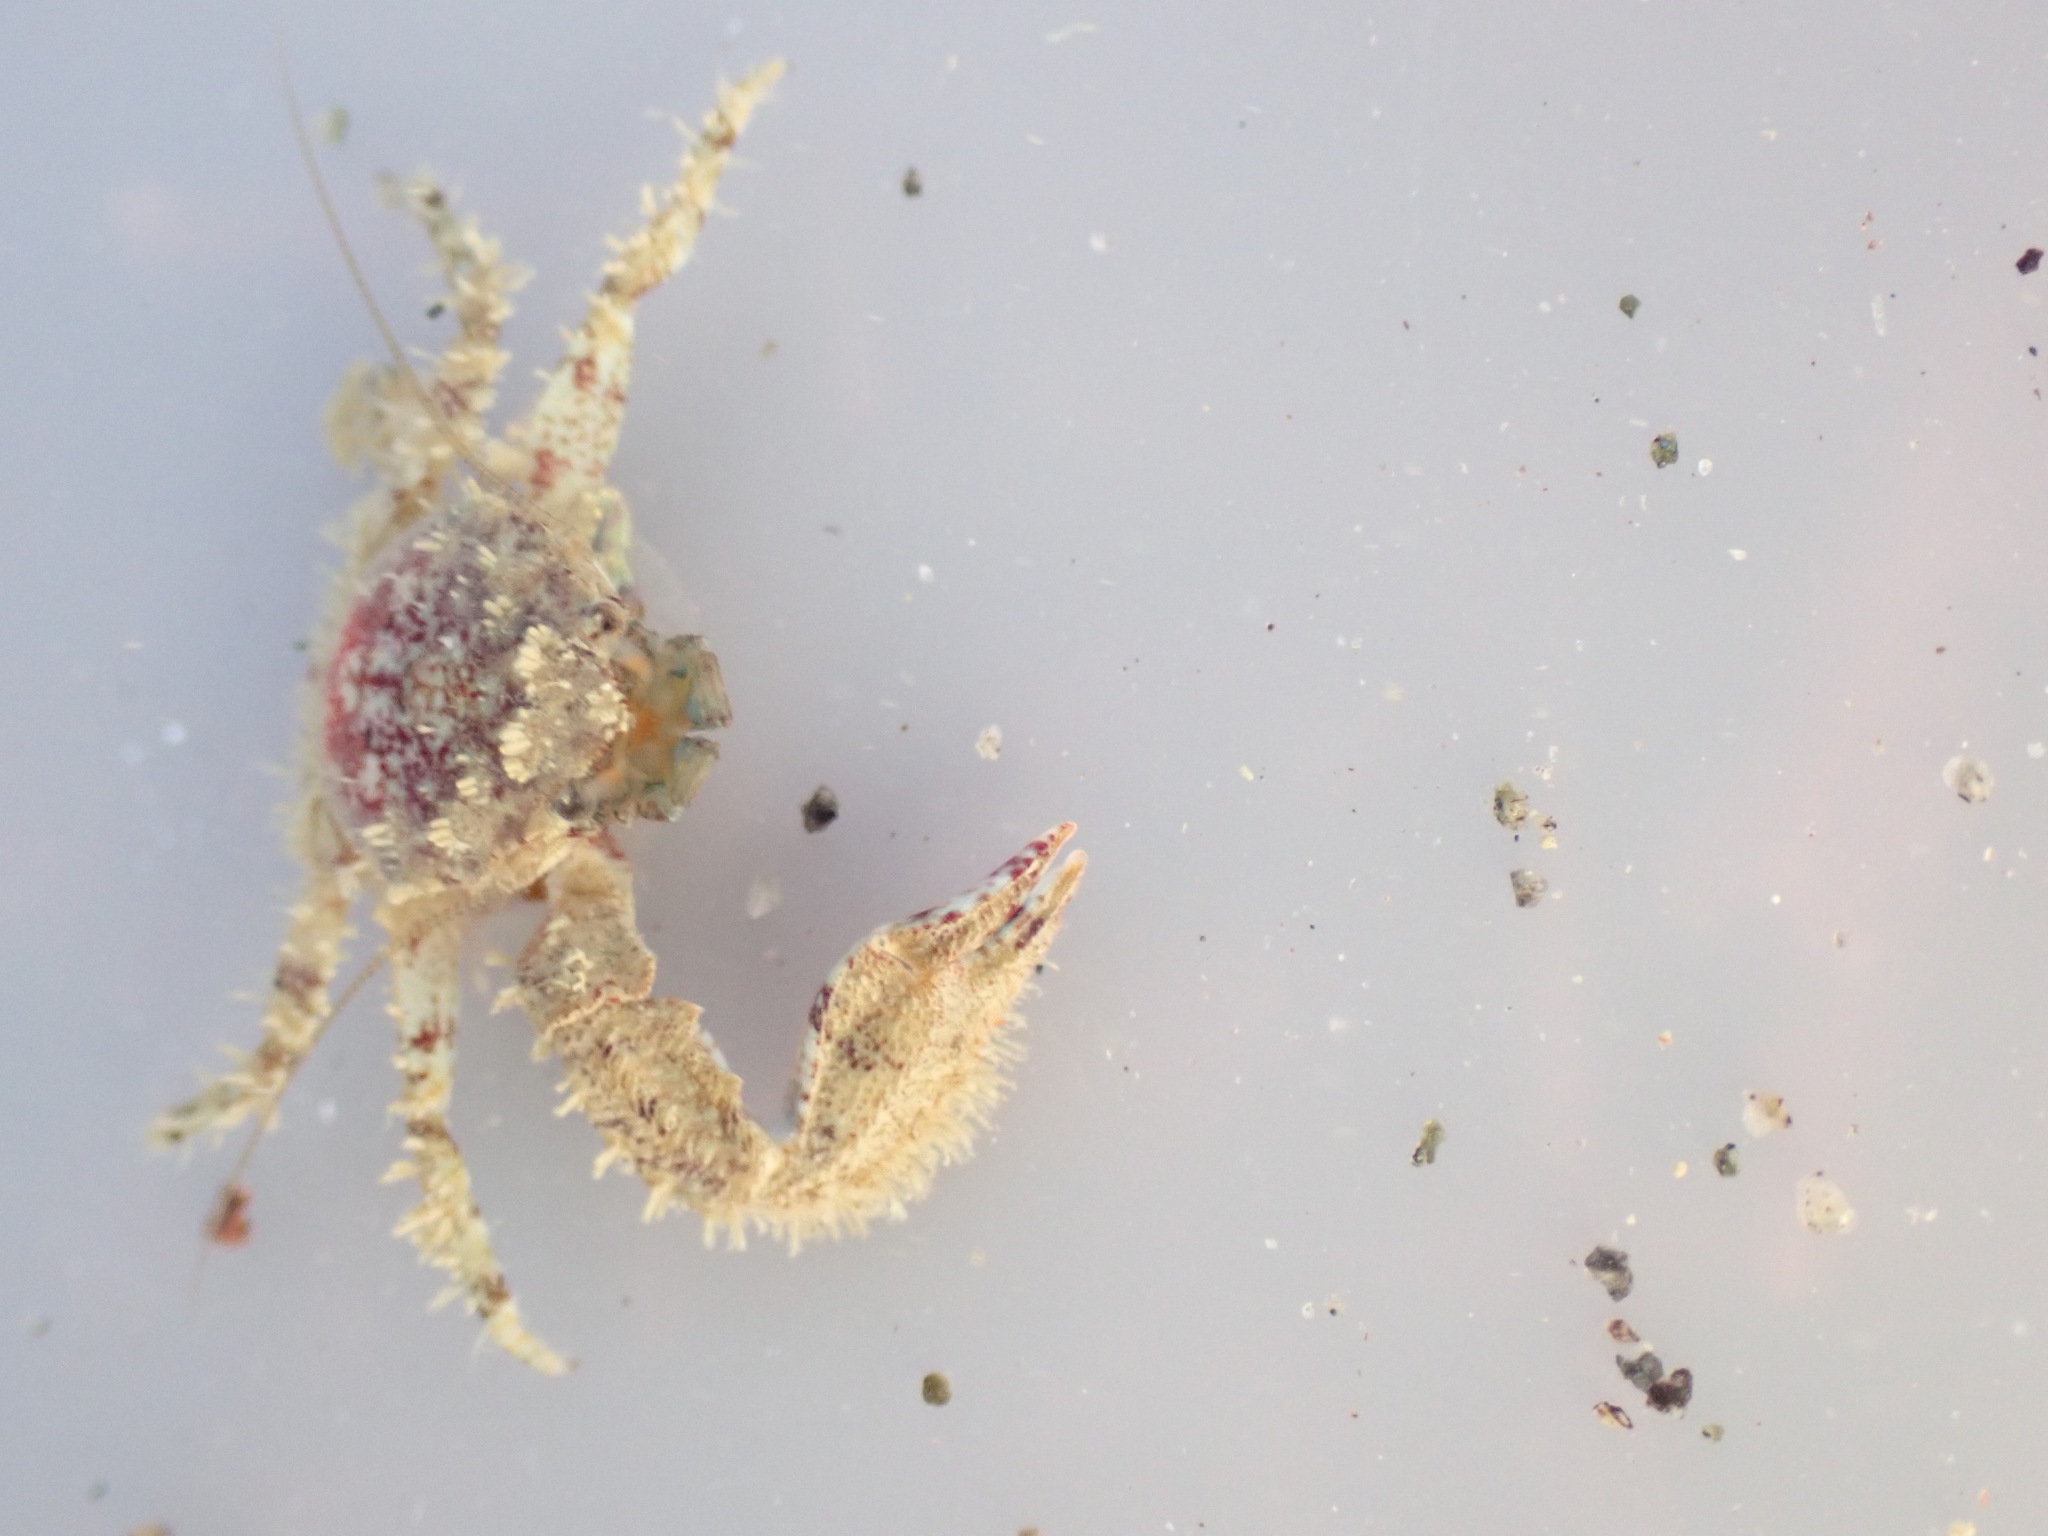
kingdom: Animalia
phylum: Arthropoda
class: Malacostraca
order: Decapoda
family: Porcellanidae
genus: Petrolisthes
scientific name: Petrolisthes novaezelandiae
